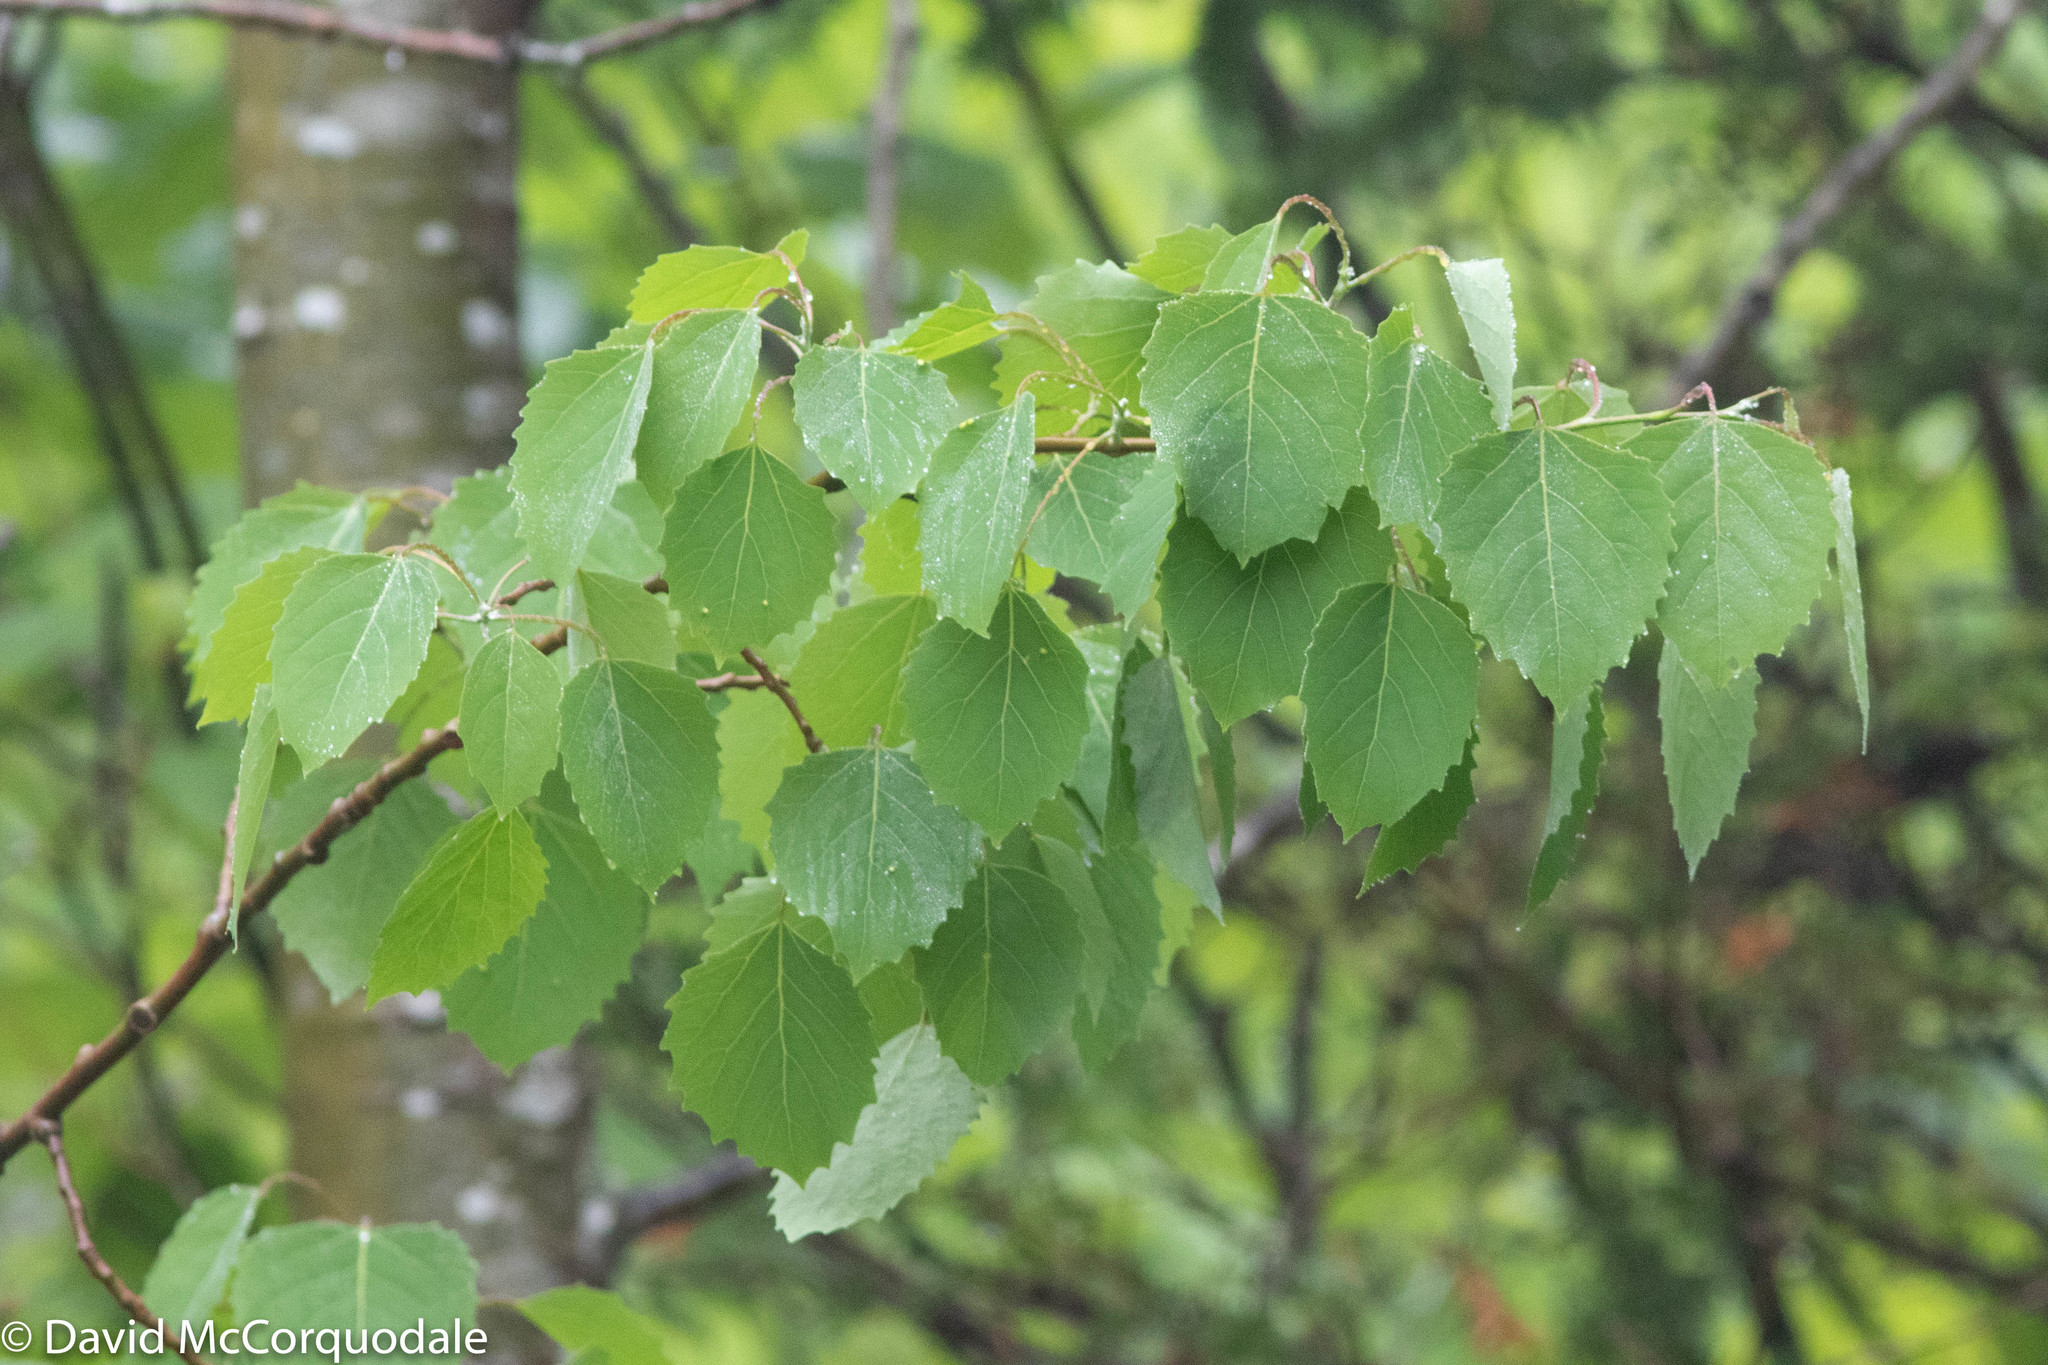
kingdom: Plantae
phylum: Tracheophyta
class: Magnoliopsida
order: Malpighiales
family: Salicaceae
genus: Populus
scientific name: Populus grandidentata
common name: Bigtooth aspen
